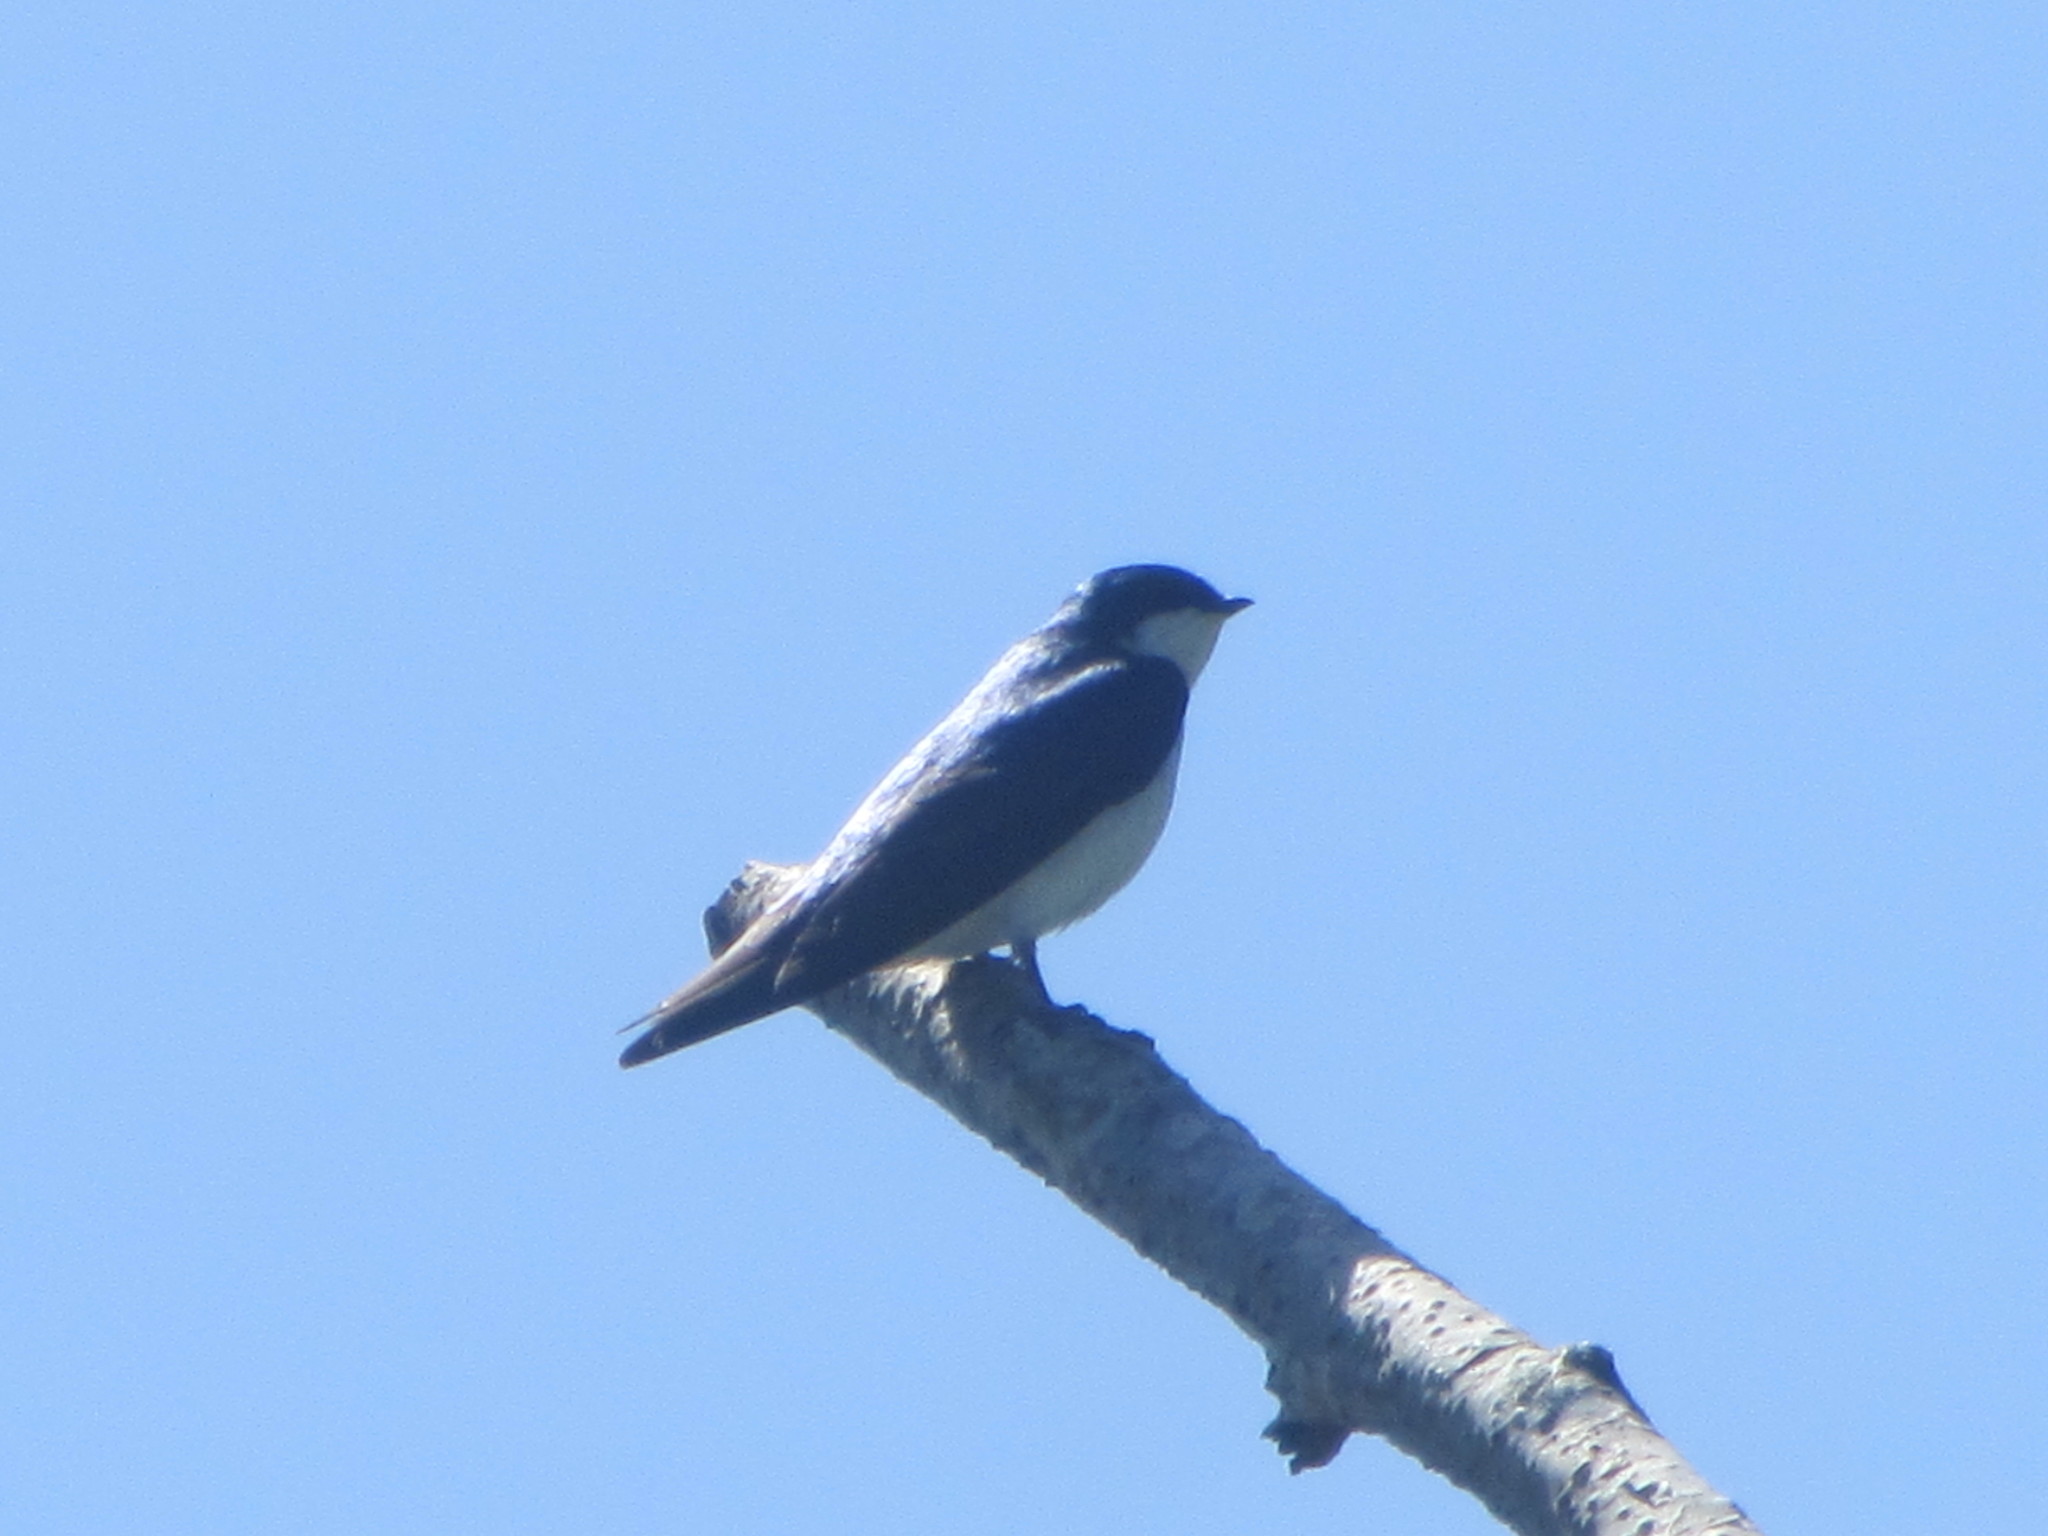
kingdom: Animalia
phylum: Chordata
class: Aves
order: Passeriformes
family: Hirundinidae
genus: Tachycineta
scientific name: Tachycineta bicolor
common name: Tree swallow
